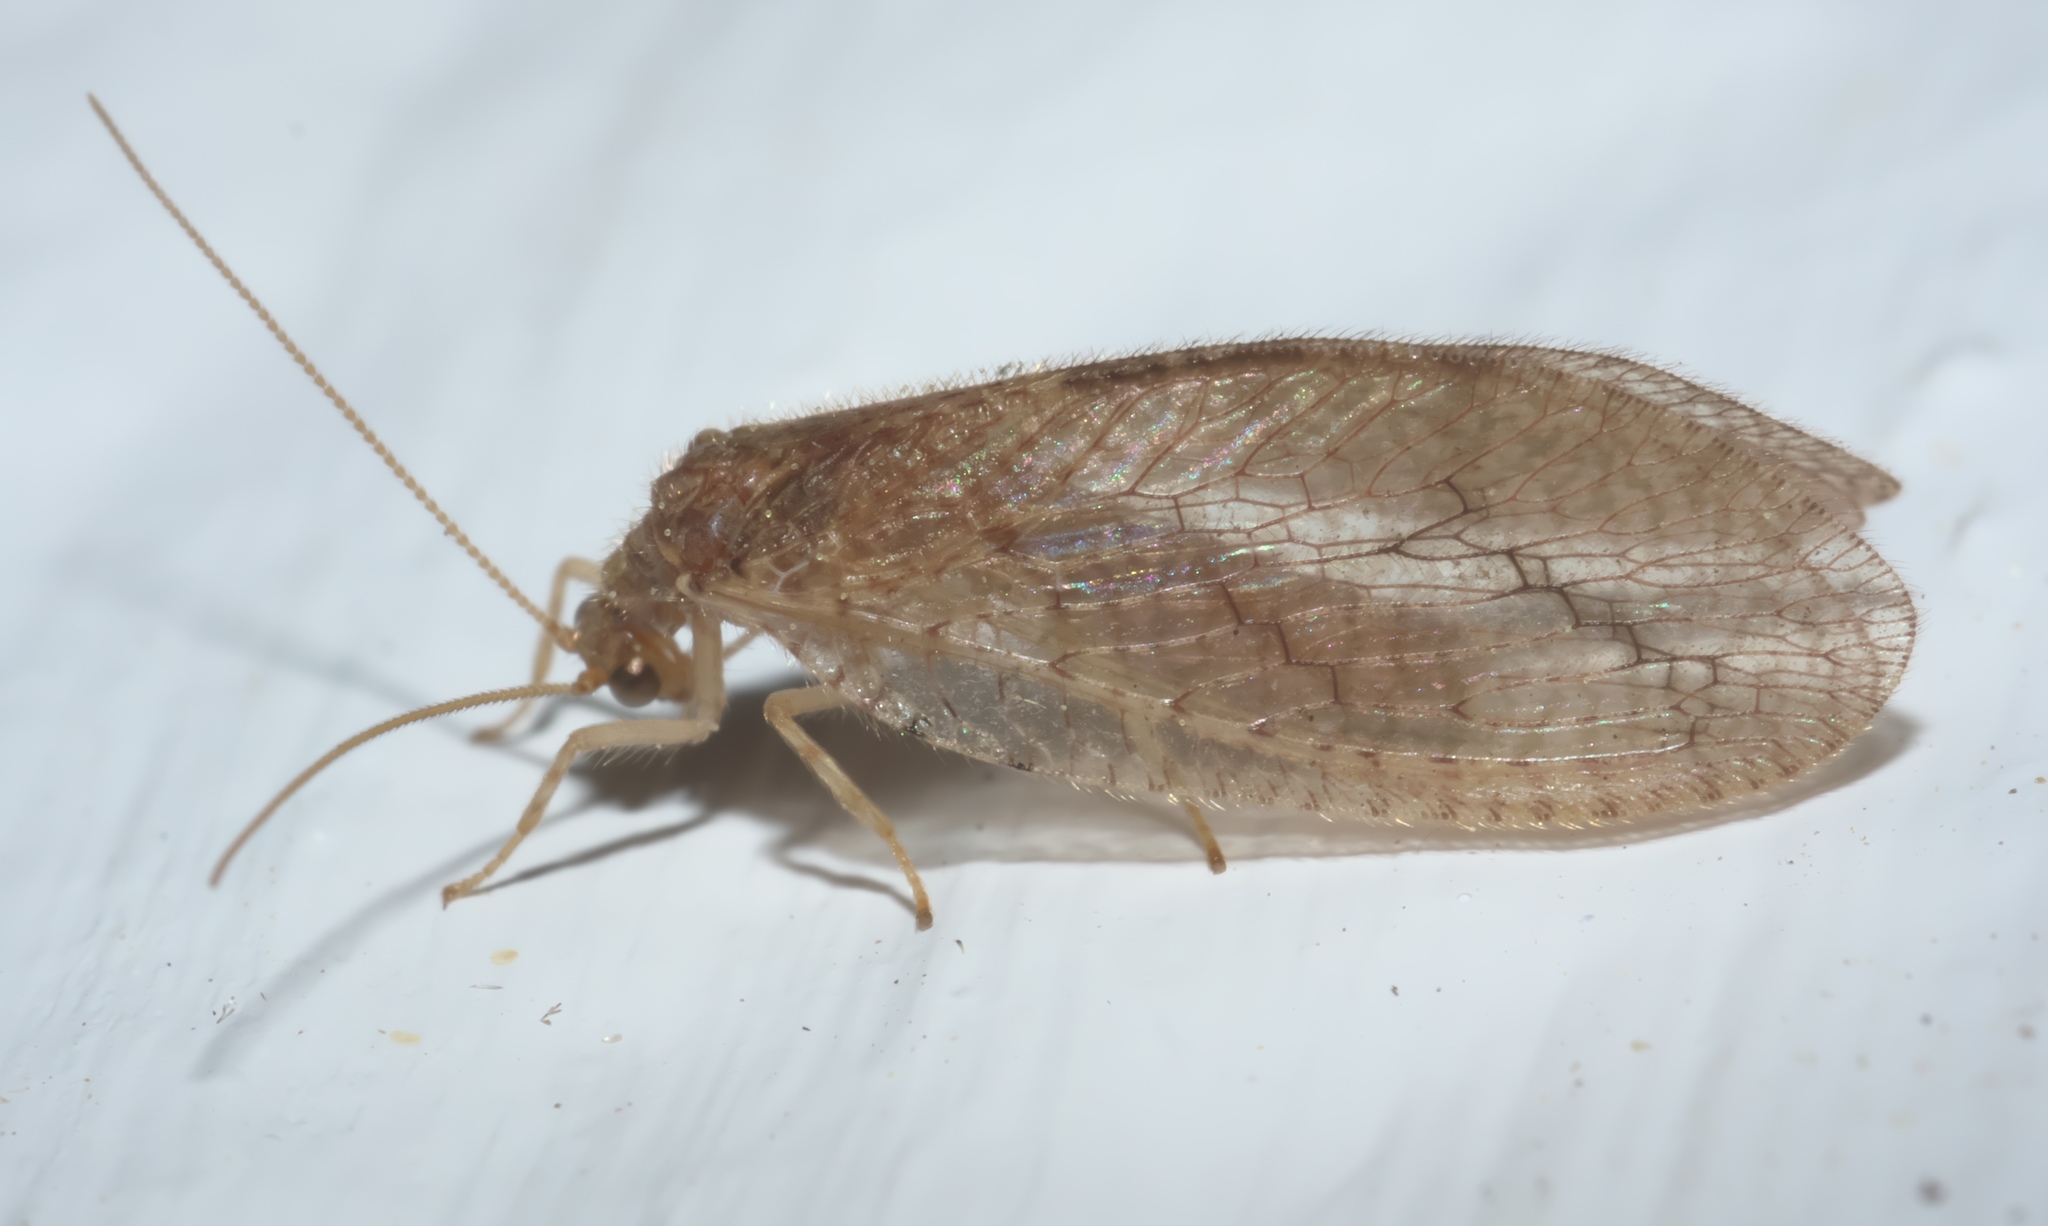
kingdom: Animalia
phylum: Arthropoda
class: Insecta
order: Neuroptera
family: Hemerobiidae
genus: Micromus
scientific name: Micromus posticus
